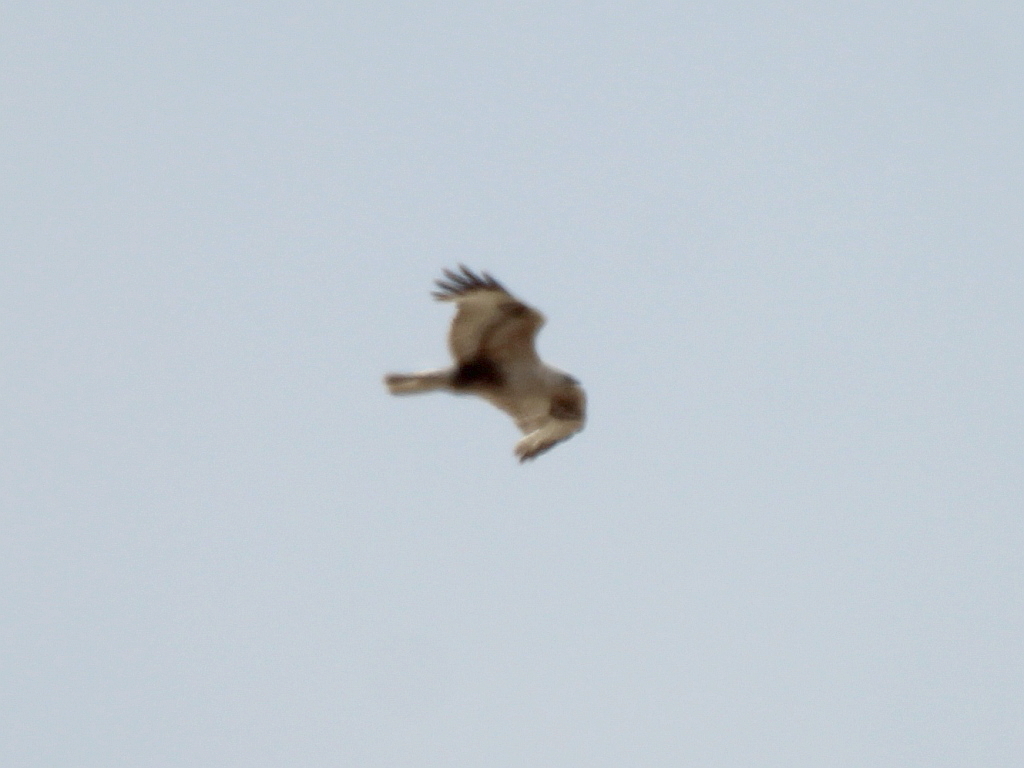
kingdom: Animalia
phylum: Chordata
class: Aves
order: Accipitriformes
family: Accipitridae
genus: Buteo
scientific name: Buteo hemilasius
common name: Upland buzzard
